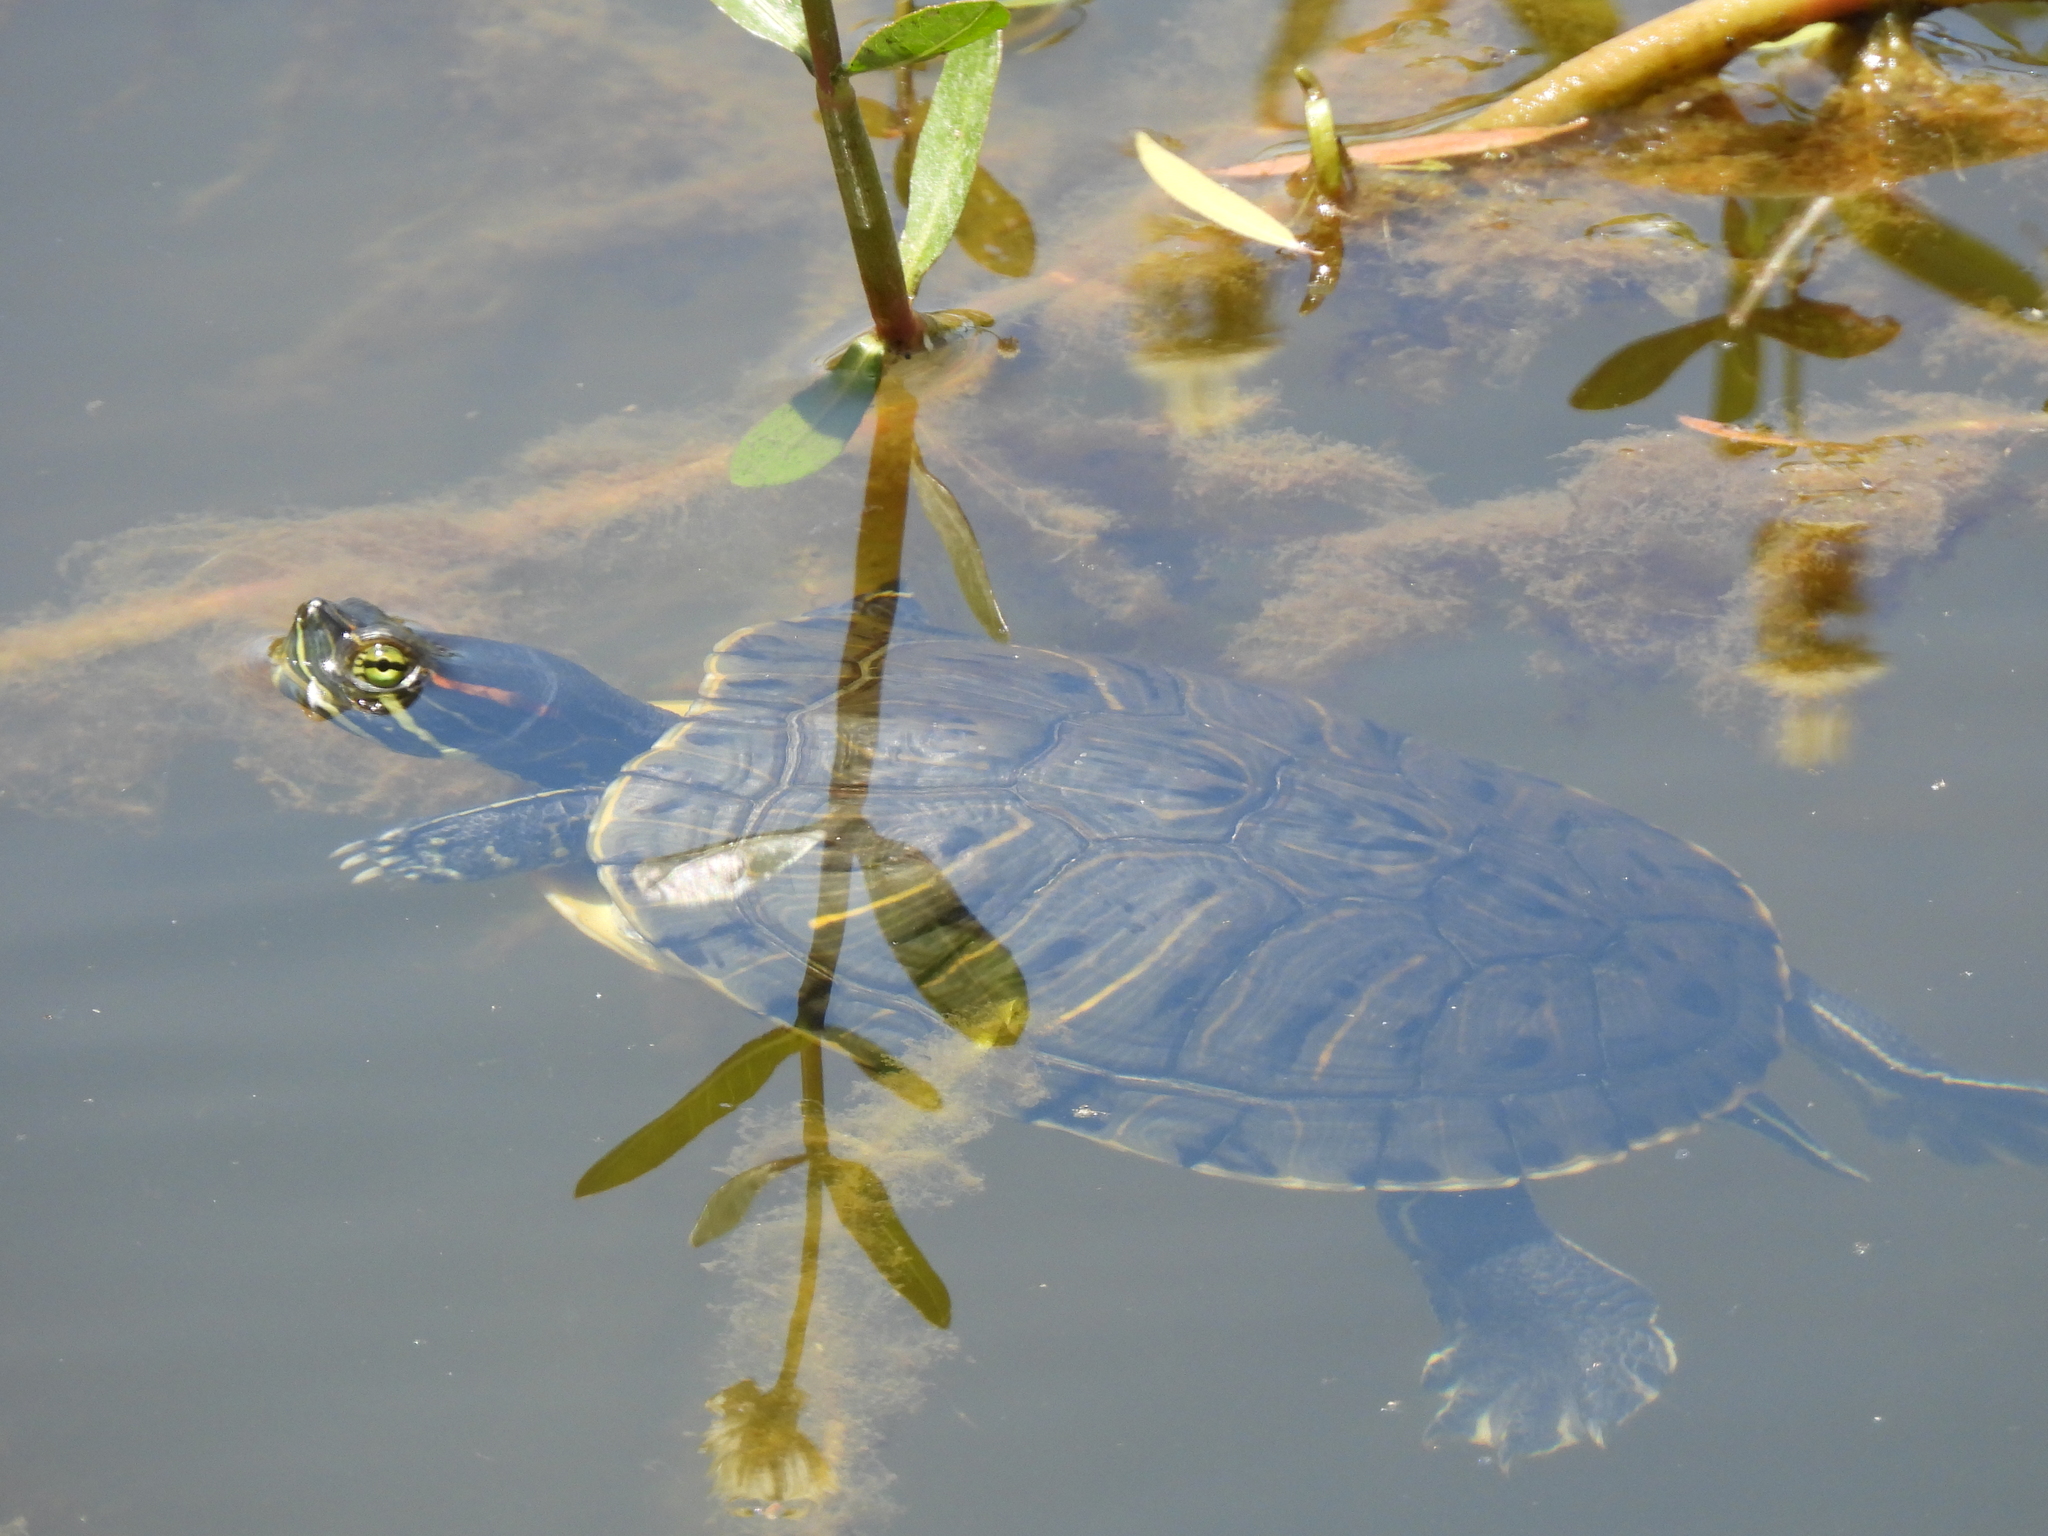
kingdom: Animalia
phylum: Chordata
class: Testudines
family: Emydidae
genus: Trachemys
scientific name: Trachemys scripta
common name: Slider
